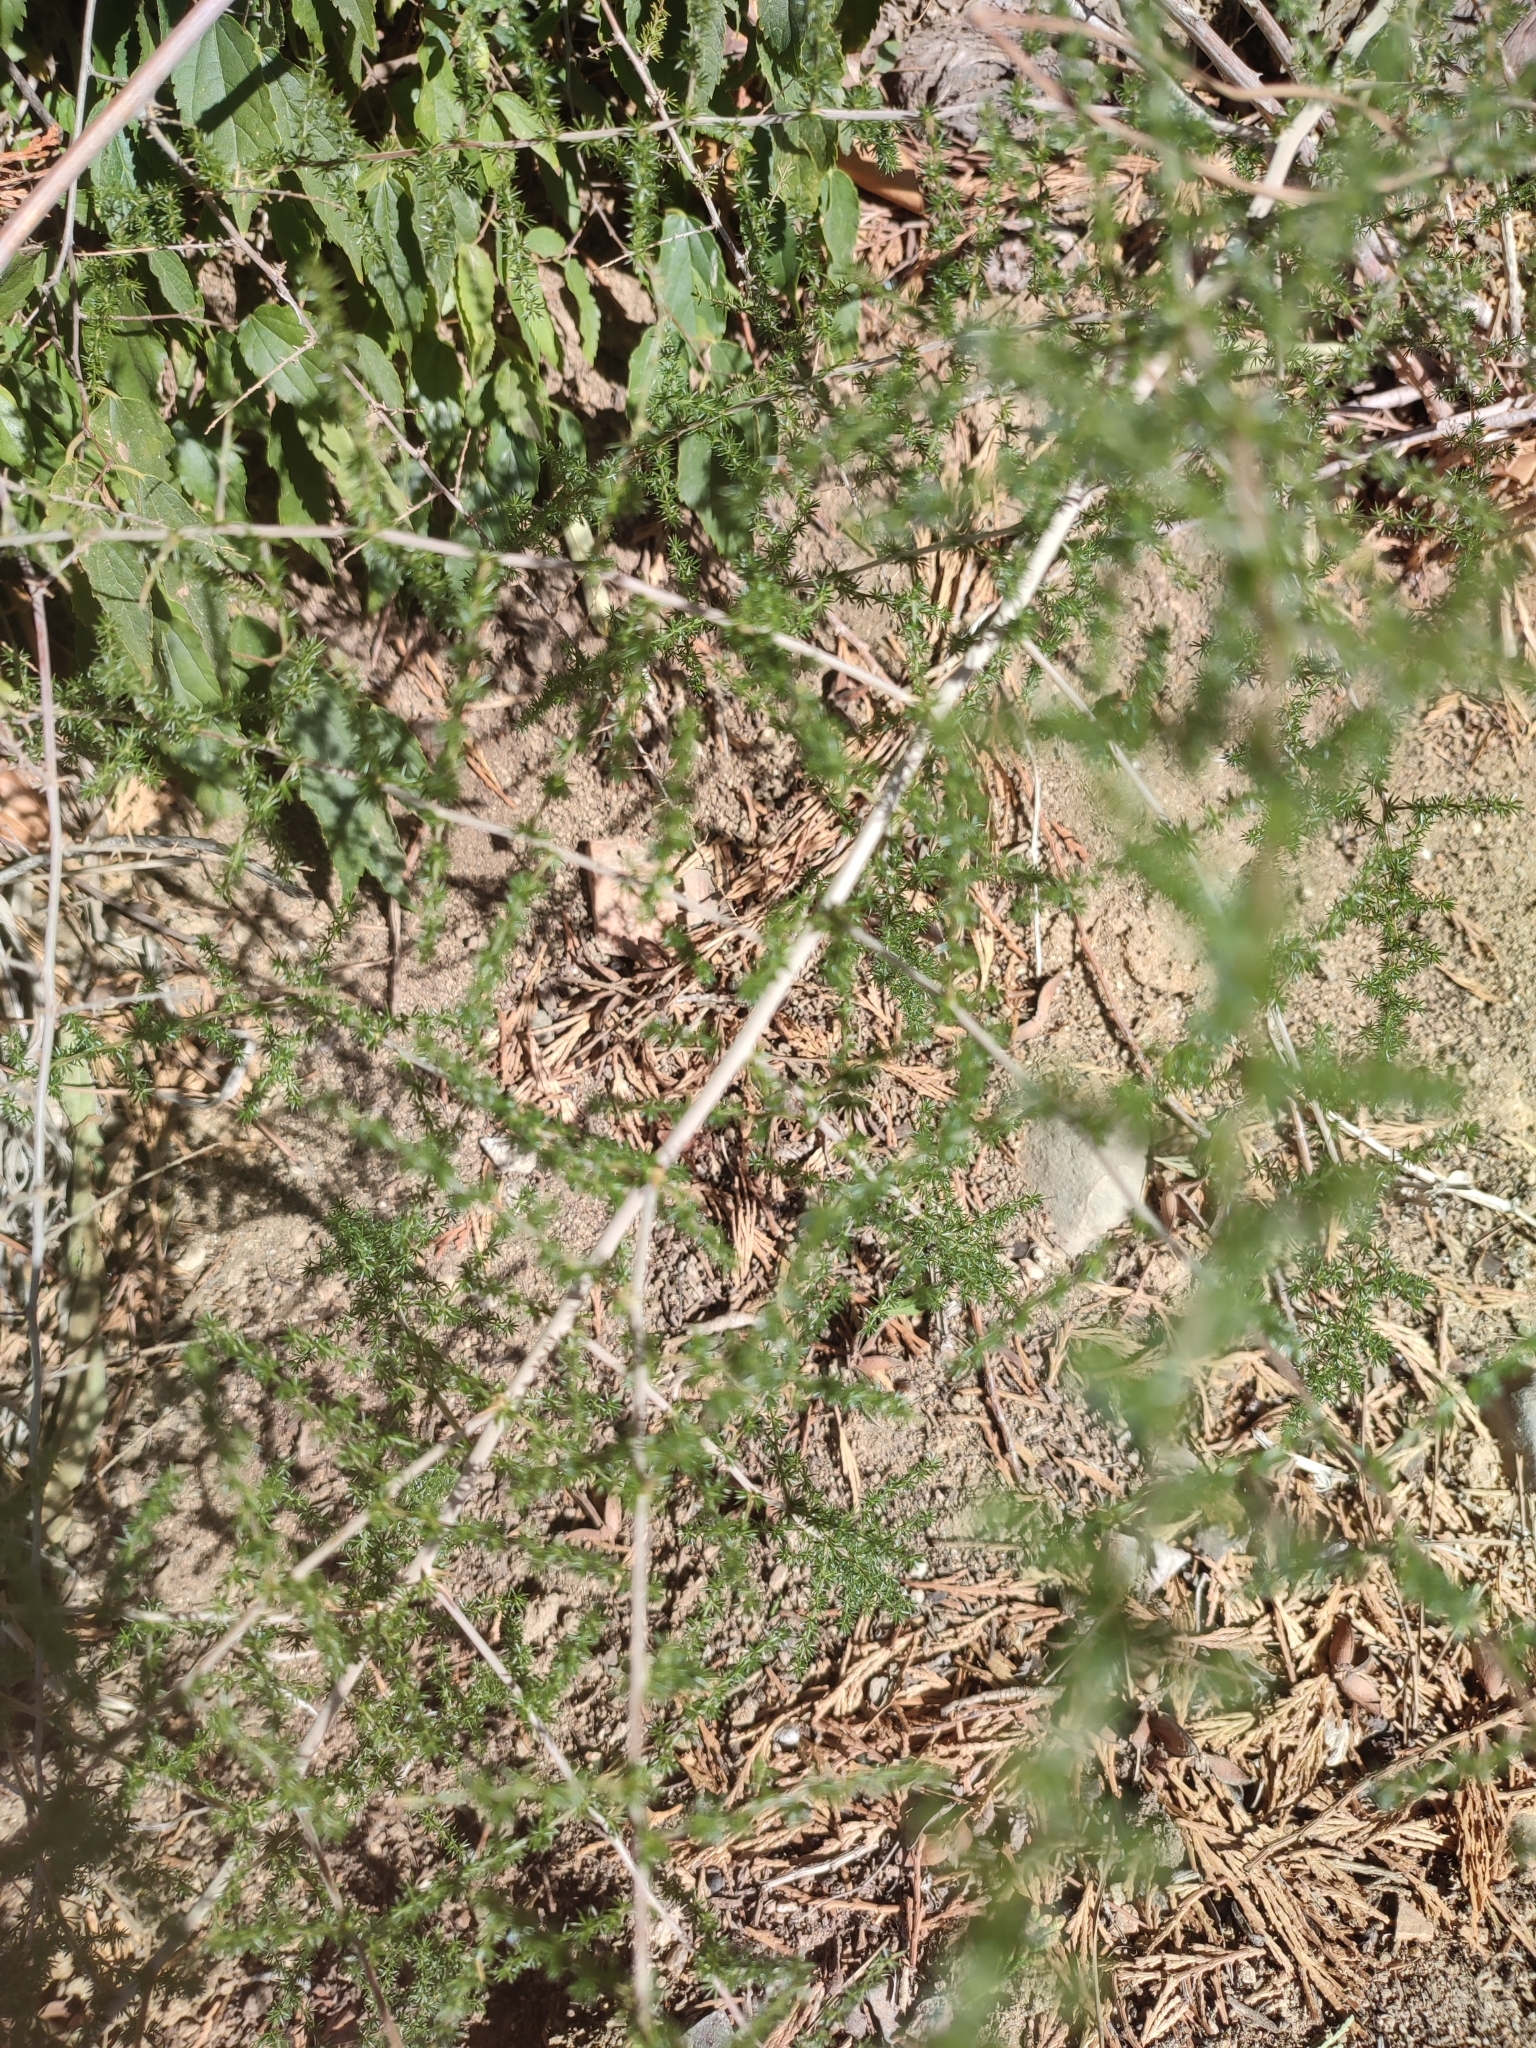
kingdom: Plantae
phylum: Tracheophyta
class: Liliopsida
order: Asparagales
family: Asparagaceae
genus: Asparagus
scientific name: Asparagus acutifolius
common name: Wild asparagus
